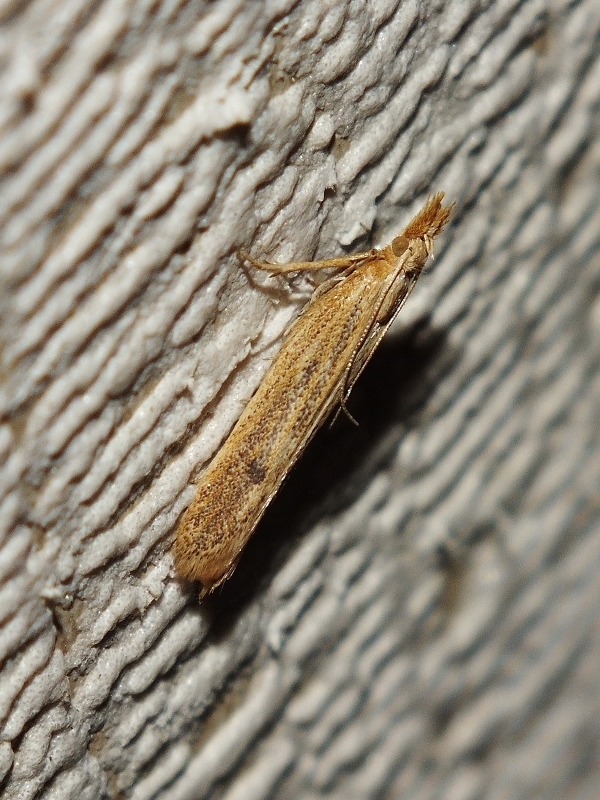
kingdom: Animalia
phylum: Arthropoda
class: Insecta
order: Lepidoptera
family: Autostichidae
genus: Holcopogon
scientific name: Holcopogon bubulcellus
